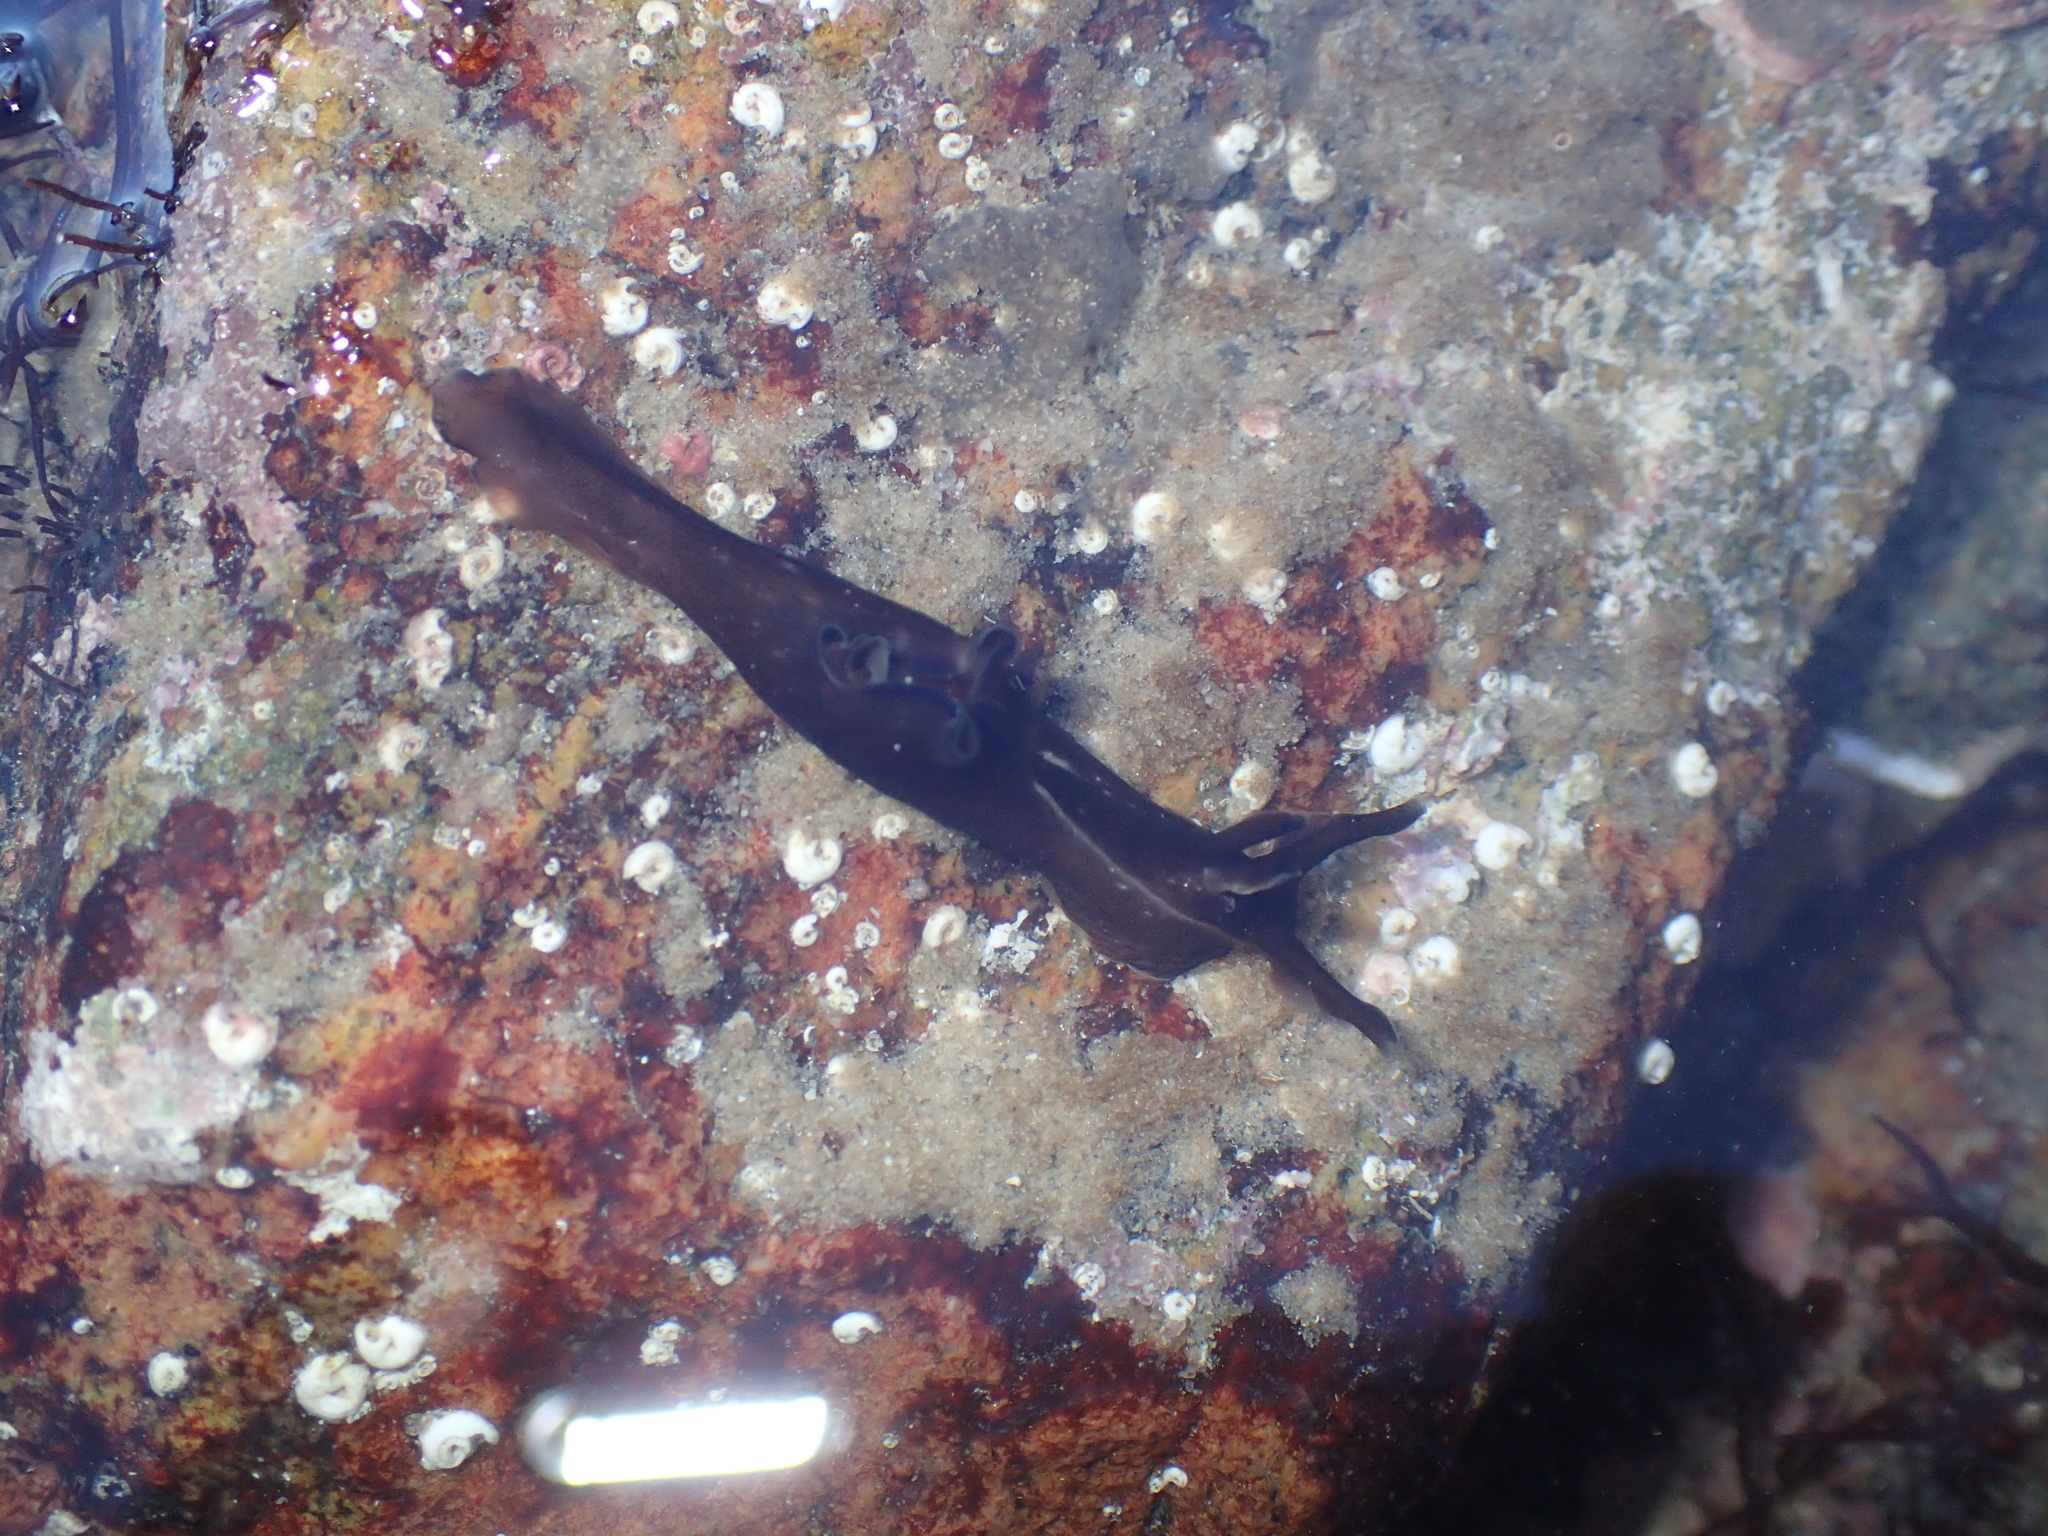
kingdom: Animalia
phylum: Mollusca
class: Gastropoda
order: Aplysiida
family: Aplysiidae
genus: Aplysia
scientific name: Aplysia punctata
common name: Common sea hare
